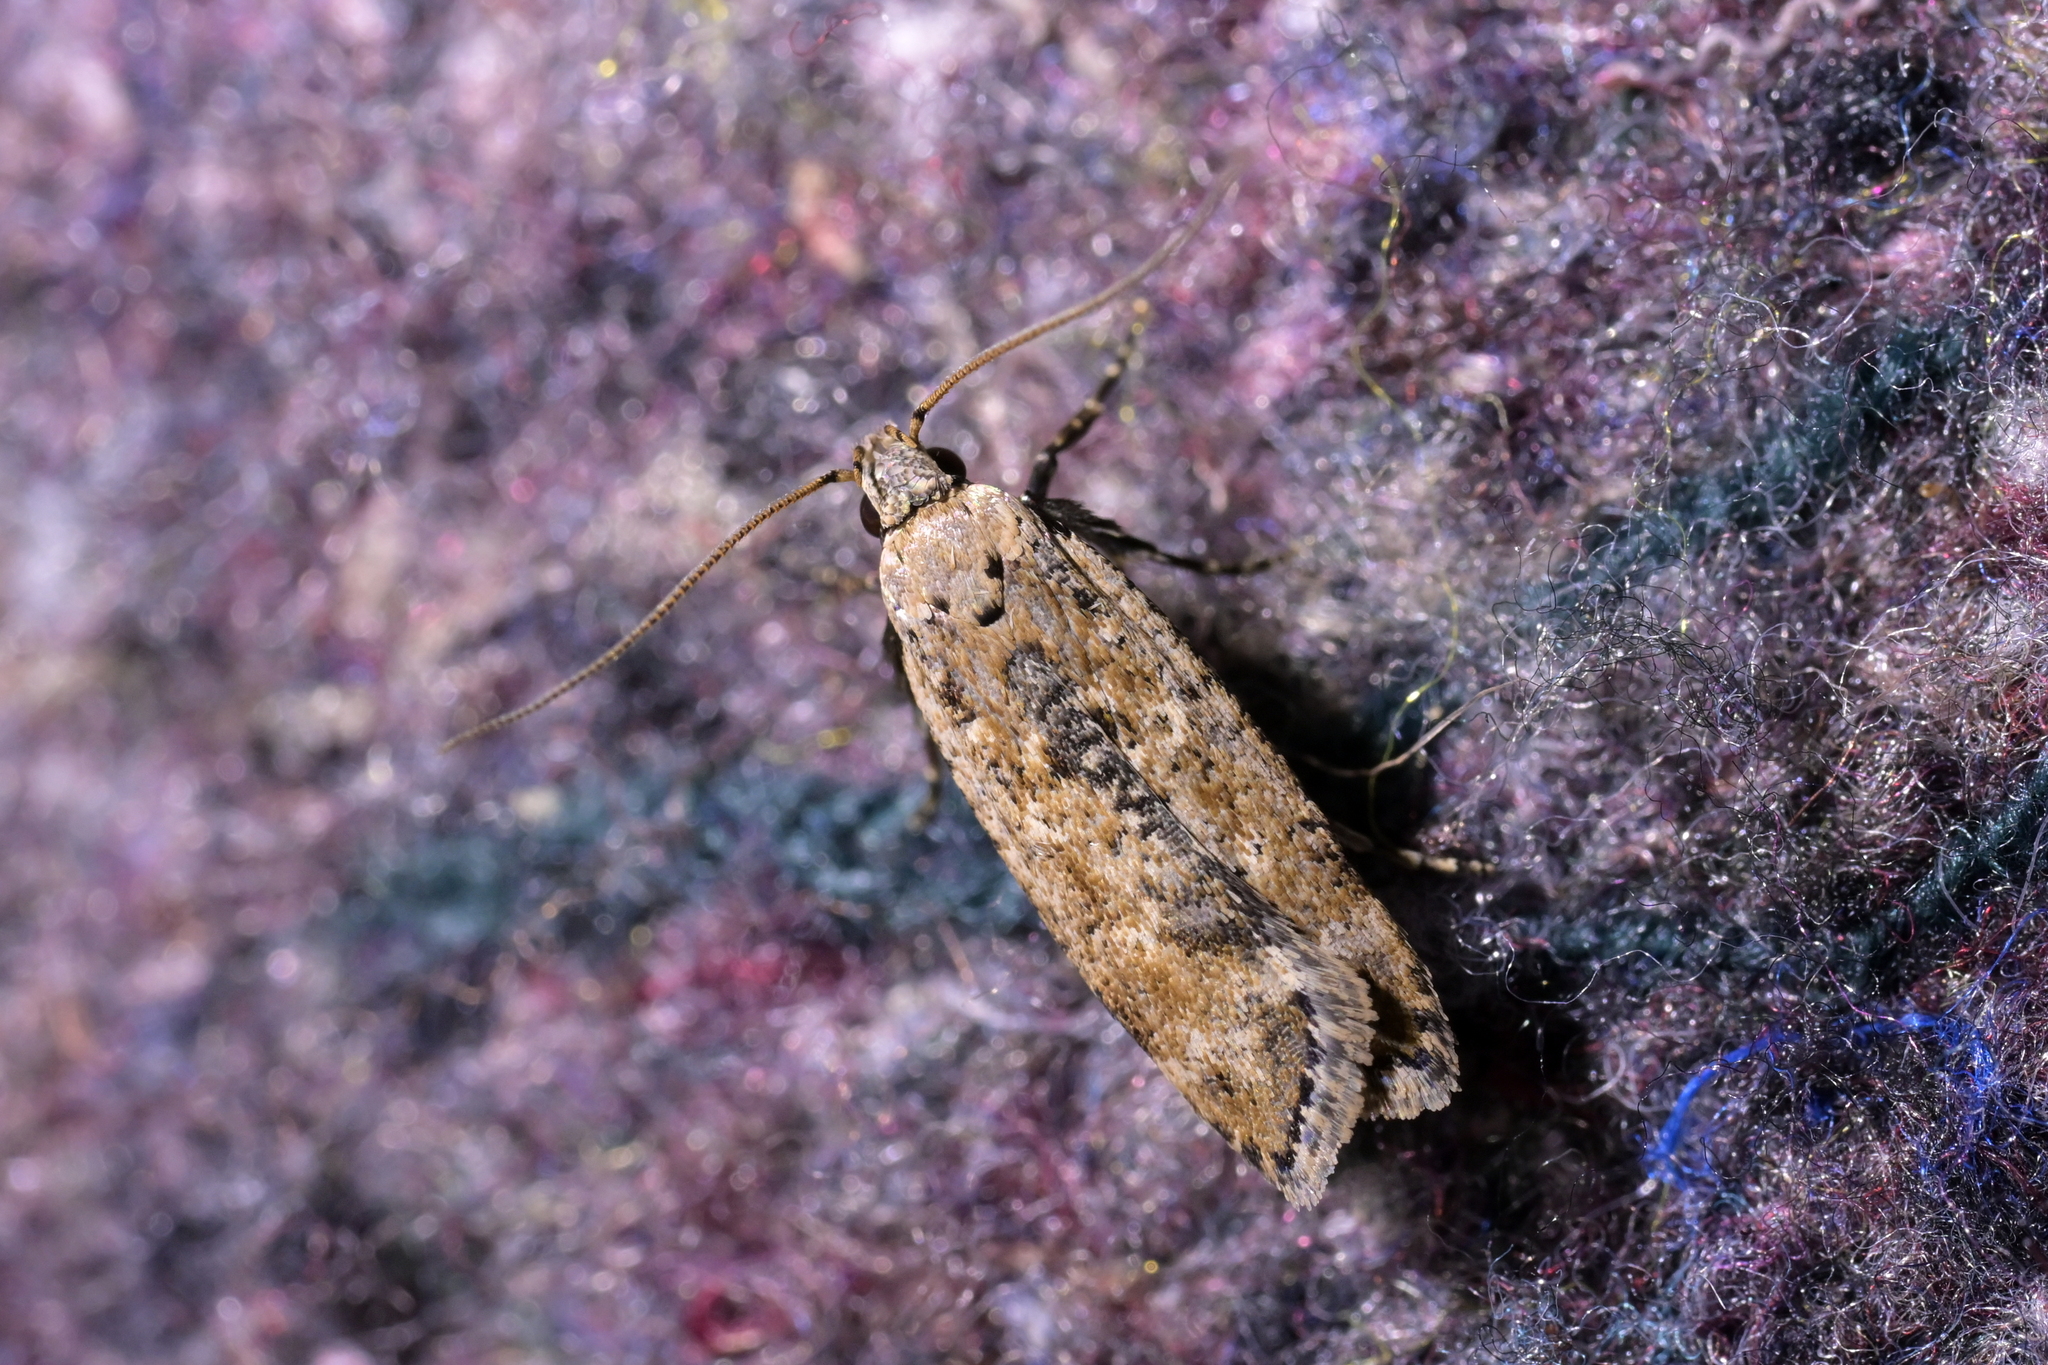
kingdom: Animalia
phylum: Arthropoda
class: Insecta
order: Lepidoptera
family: Gelechiidae
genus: Anisoplaca
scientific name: Anisoplaca achyrota
